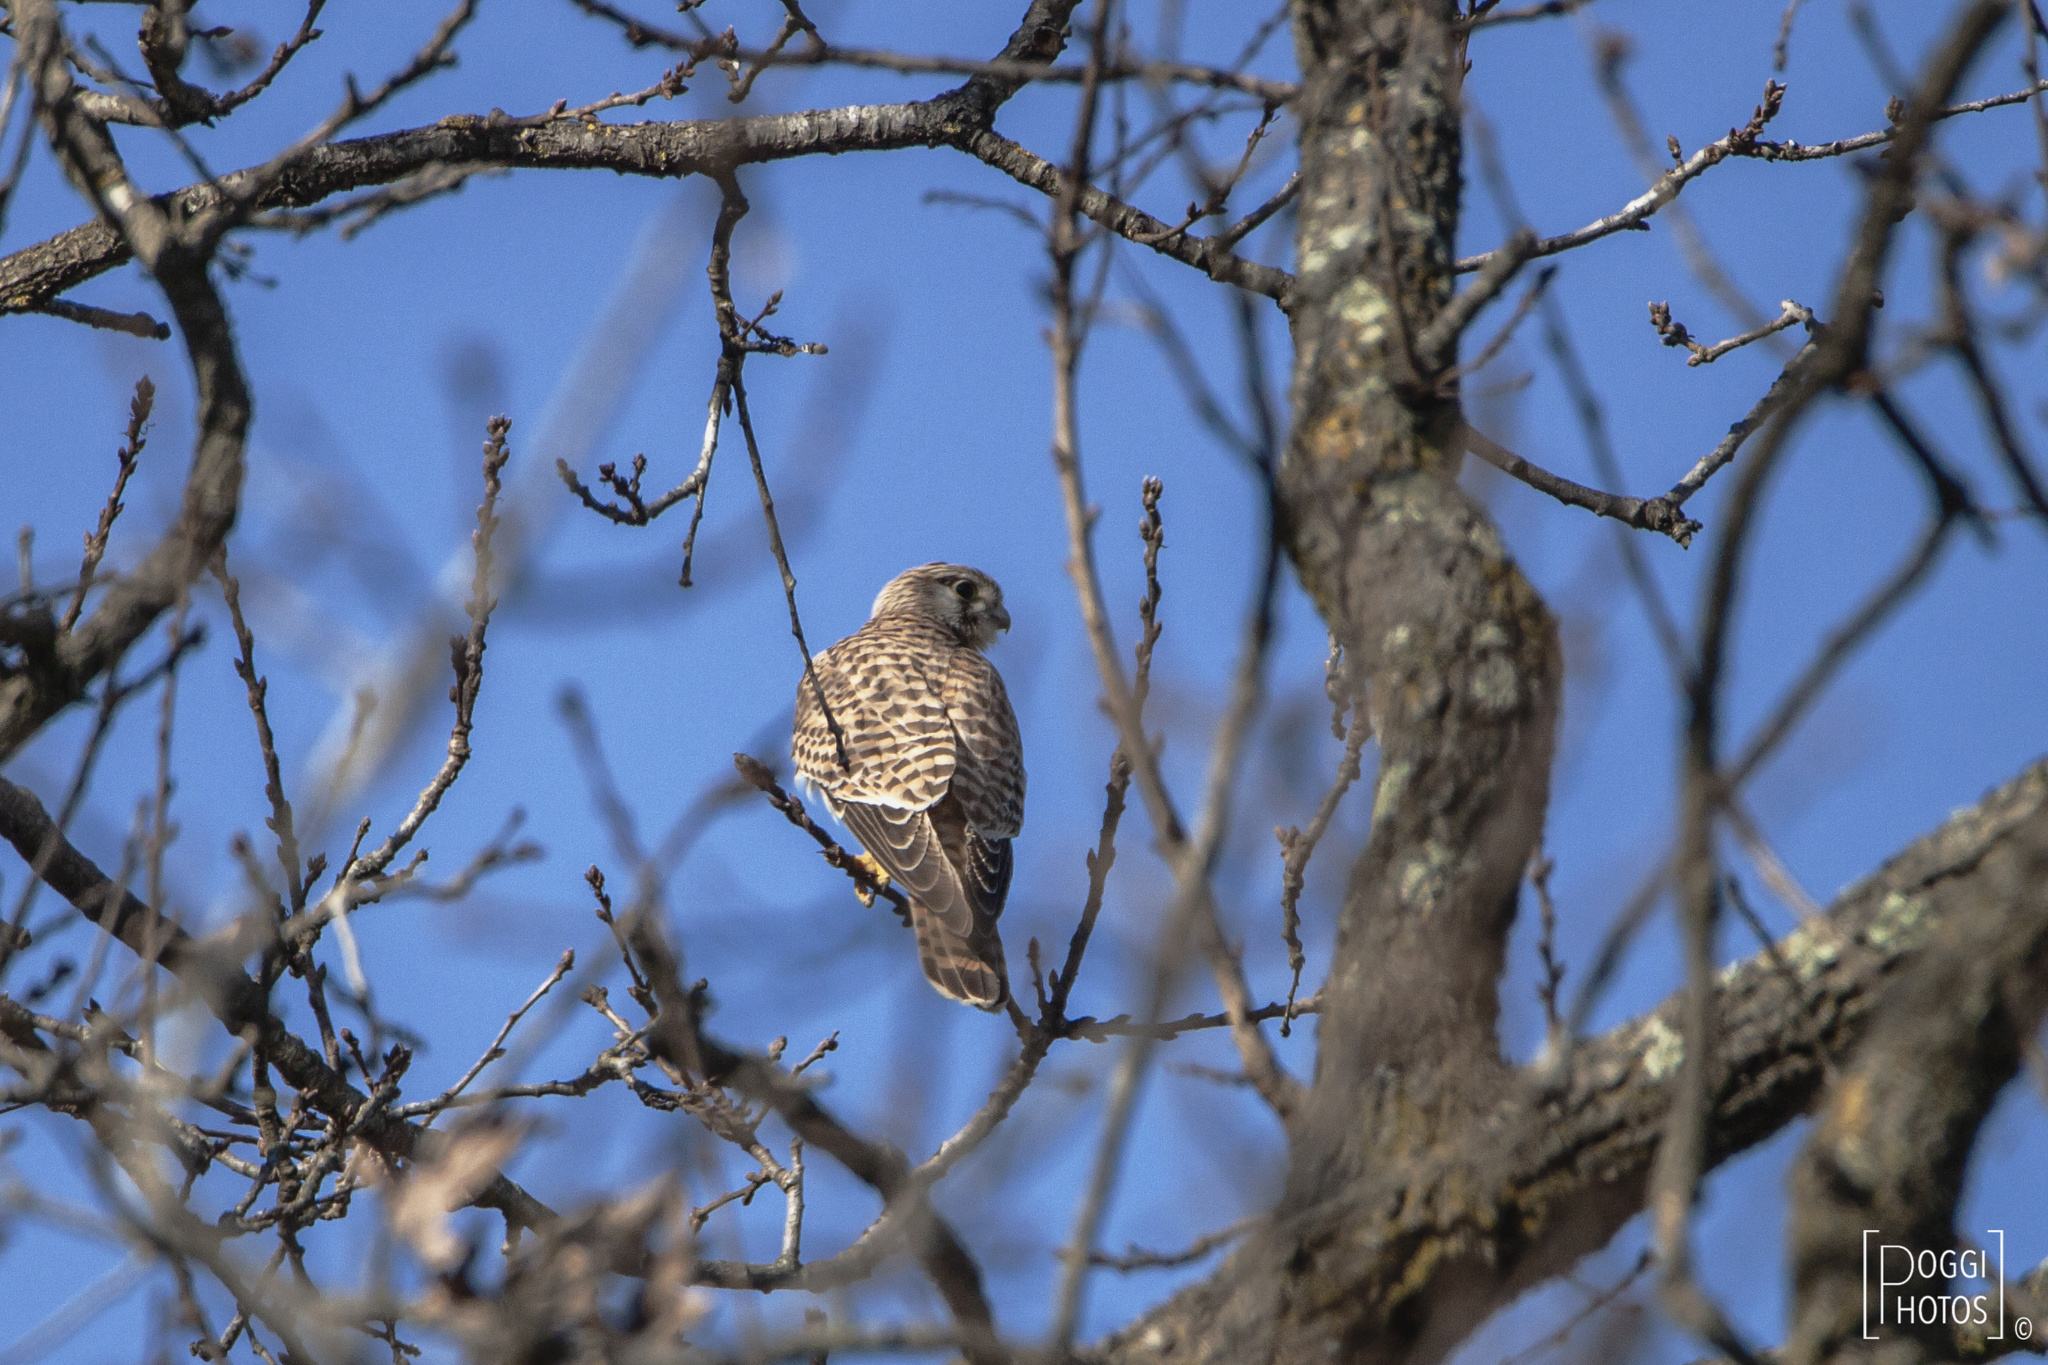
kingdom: Animalia
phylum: Chordata
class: Aves
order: Falconiformes
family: Falconidae
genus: Falco
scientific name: Falco tinnunculus
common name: Common kestrel
